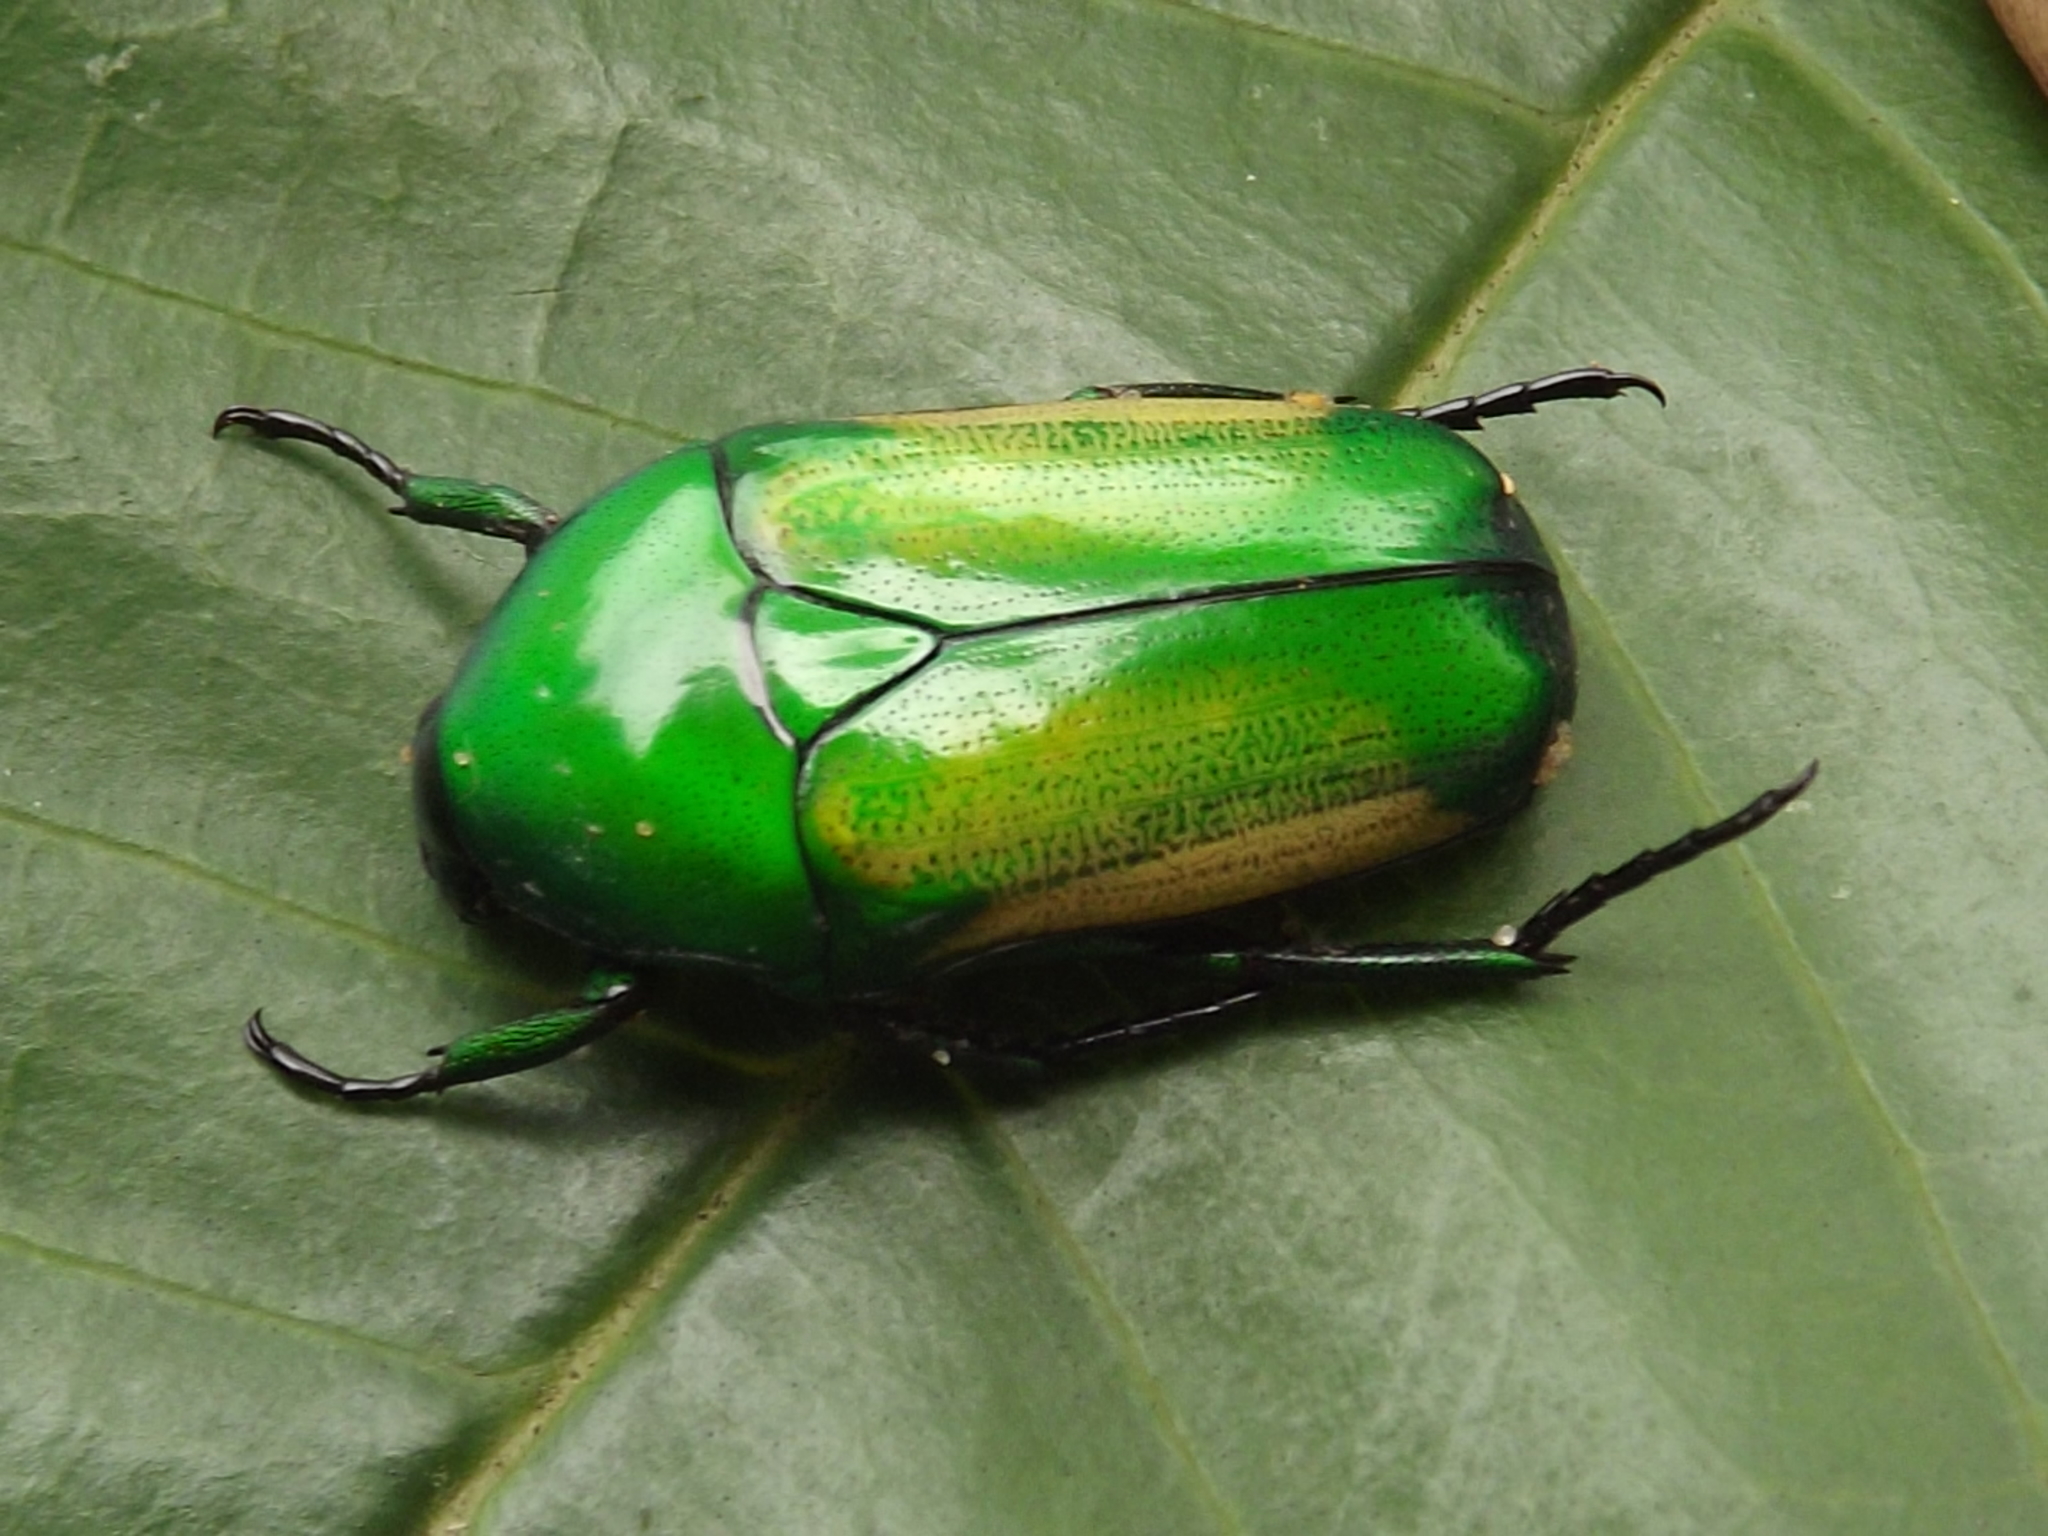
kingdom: Animalia
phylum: Arthropoda
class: Insecta
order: Coleoptera
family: Scarabaeidae
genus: Chlorocala
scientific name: Chlorocala africana
